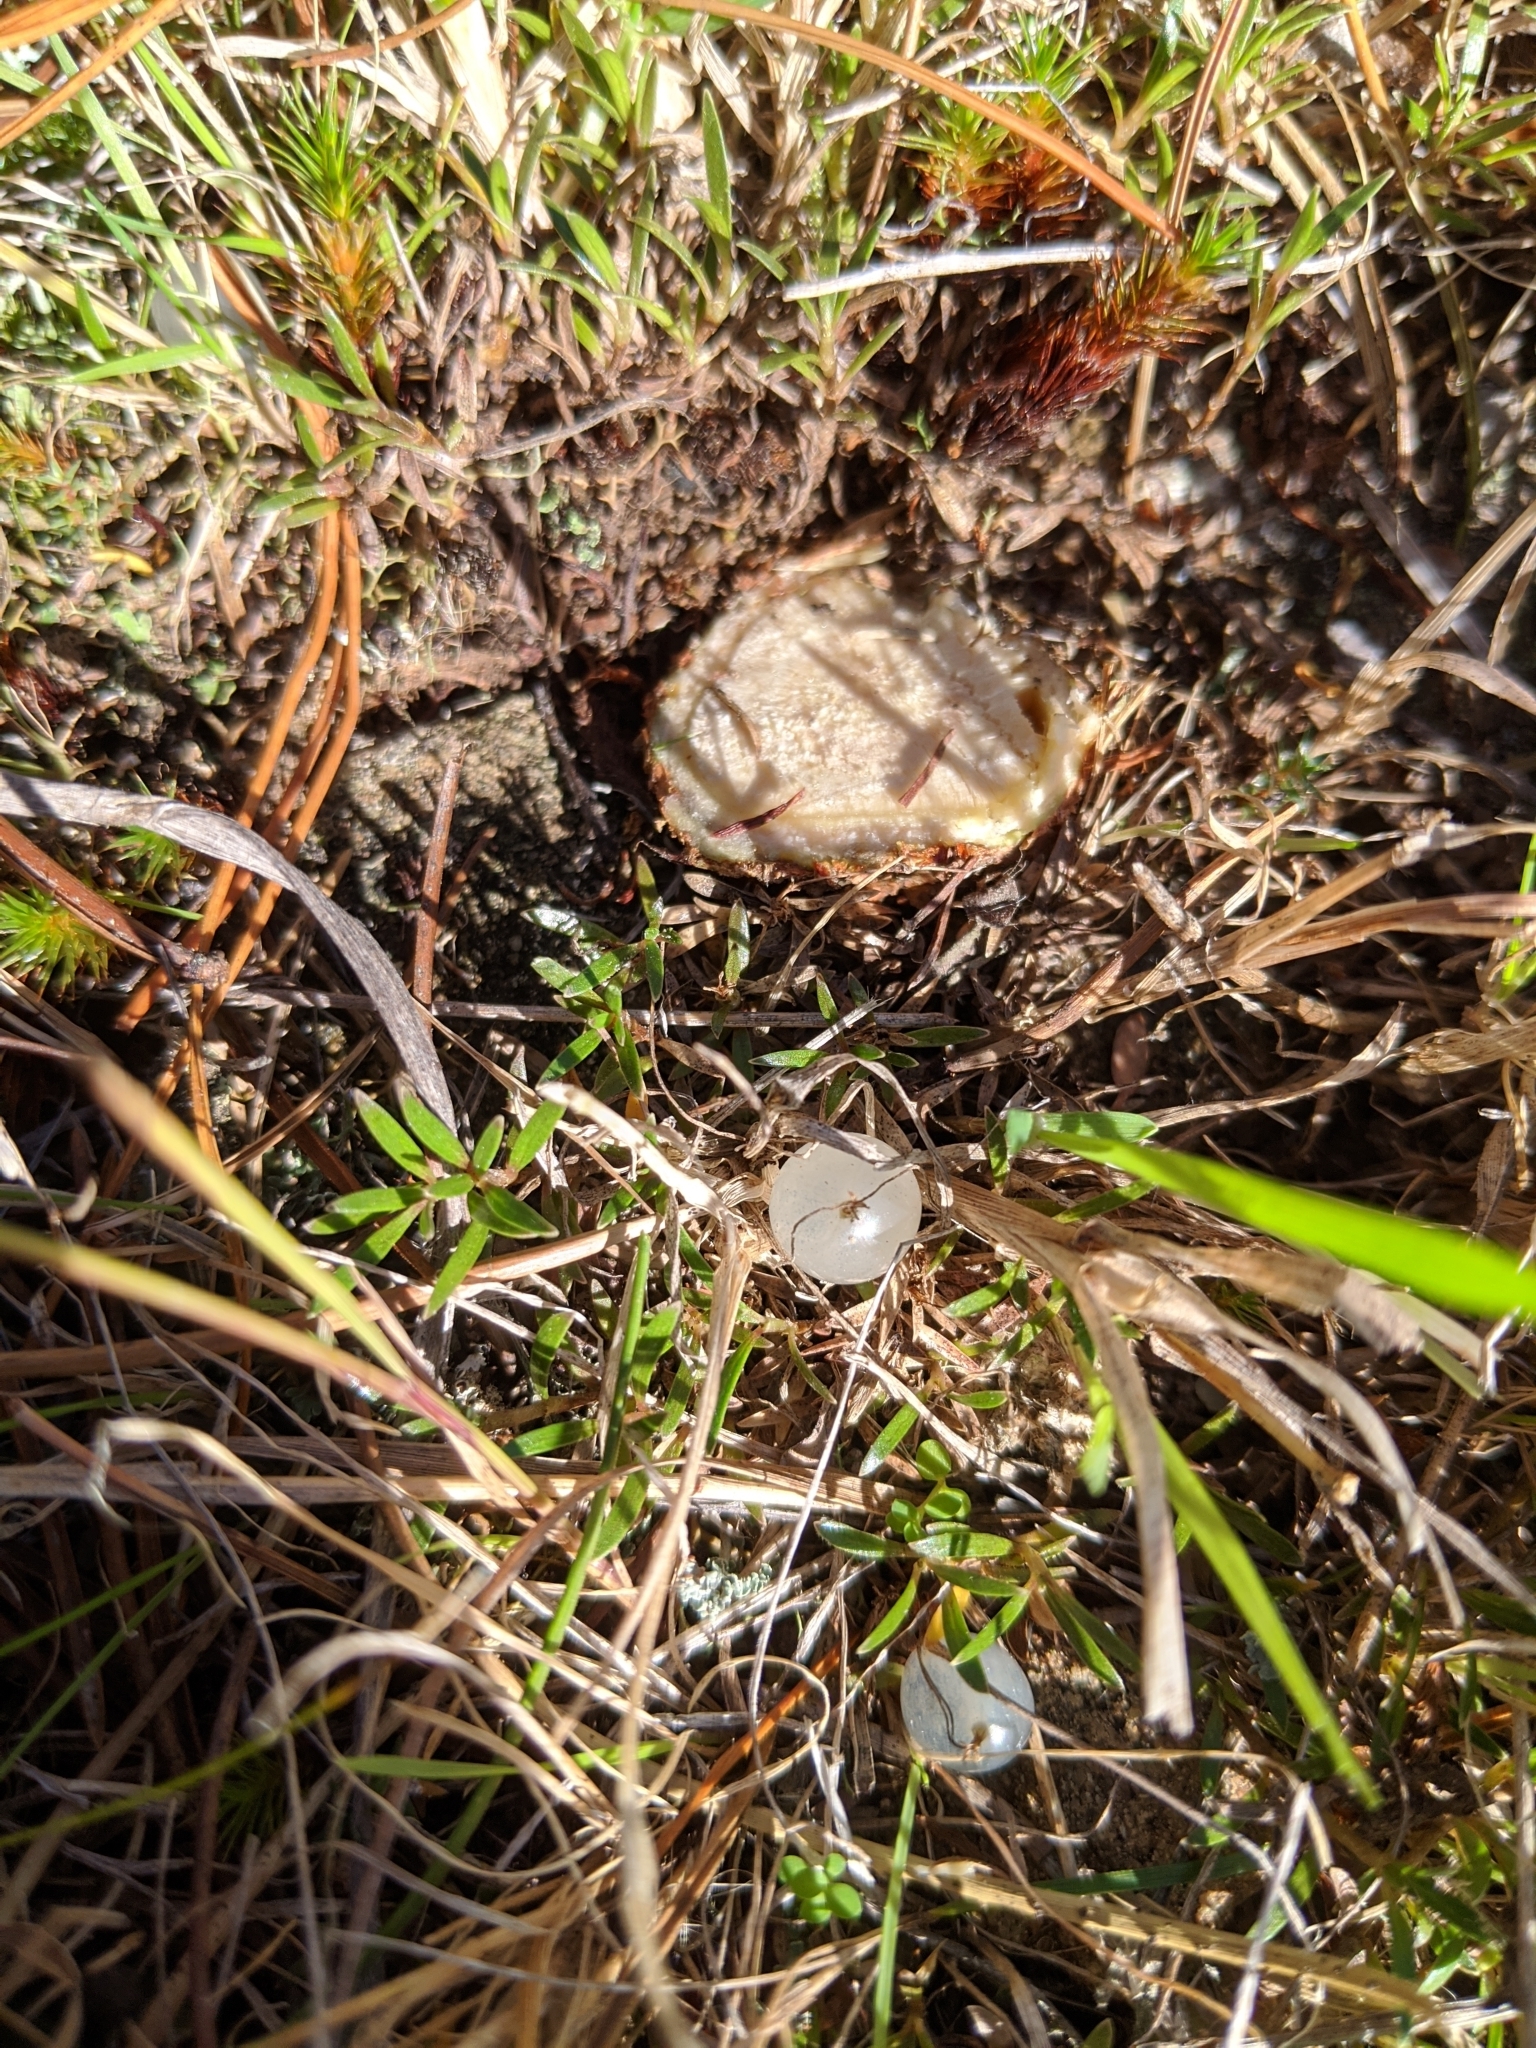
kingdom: Plantae
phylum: Tracheophyta
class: Magnoliopsida
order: Gentianales
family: Rubiaceae
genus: Coprosma
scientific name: Coprosma petriei
